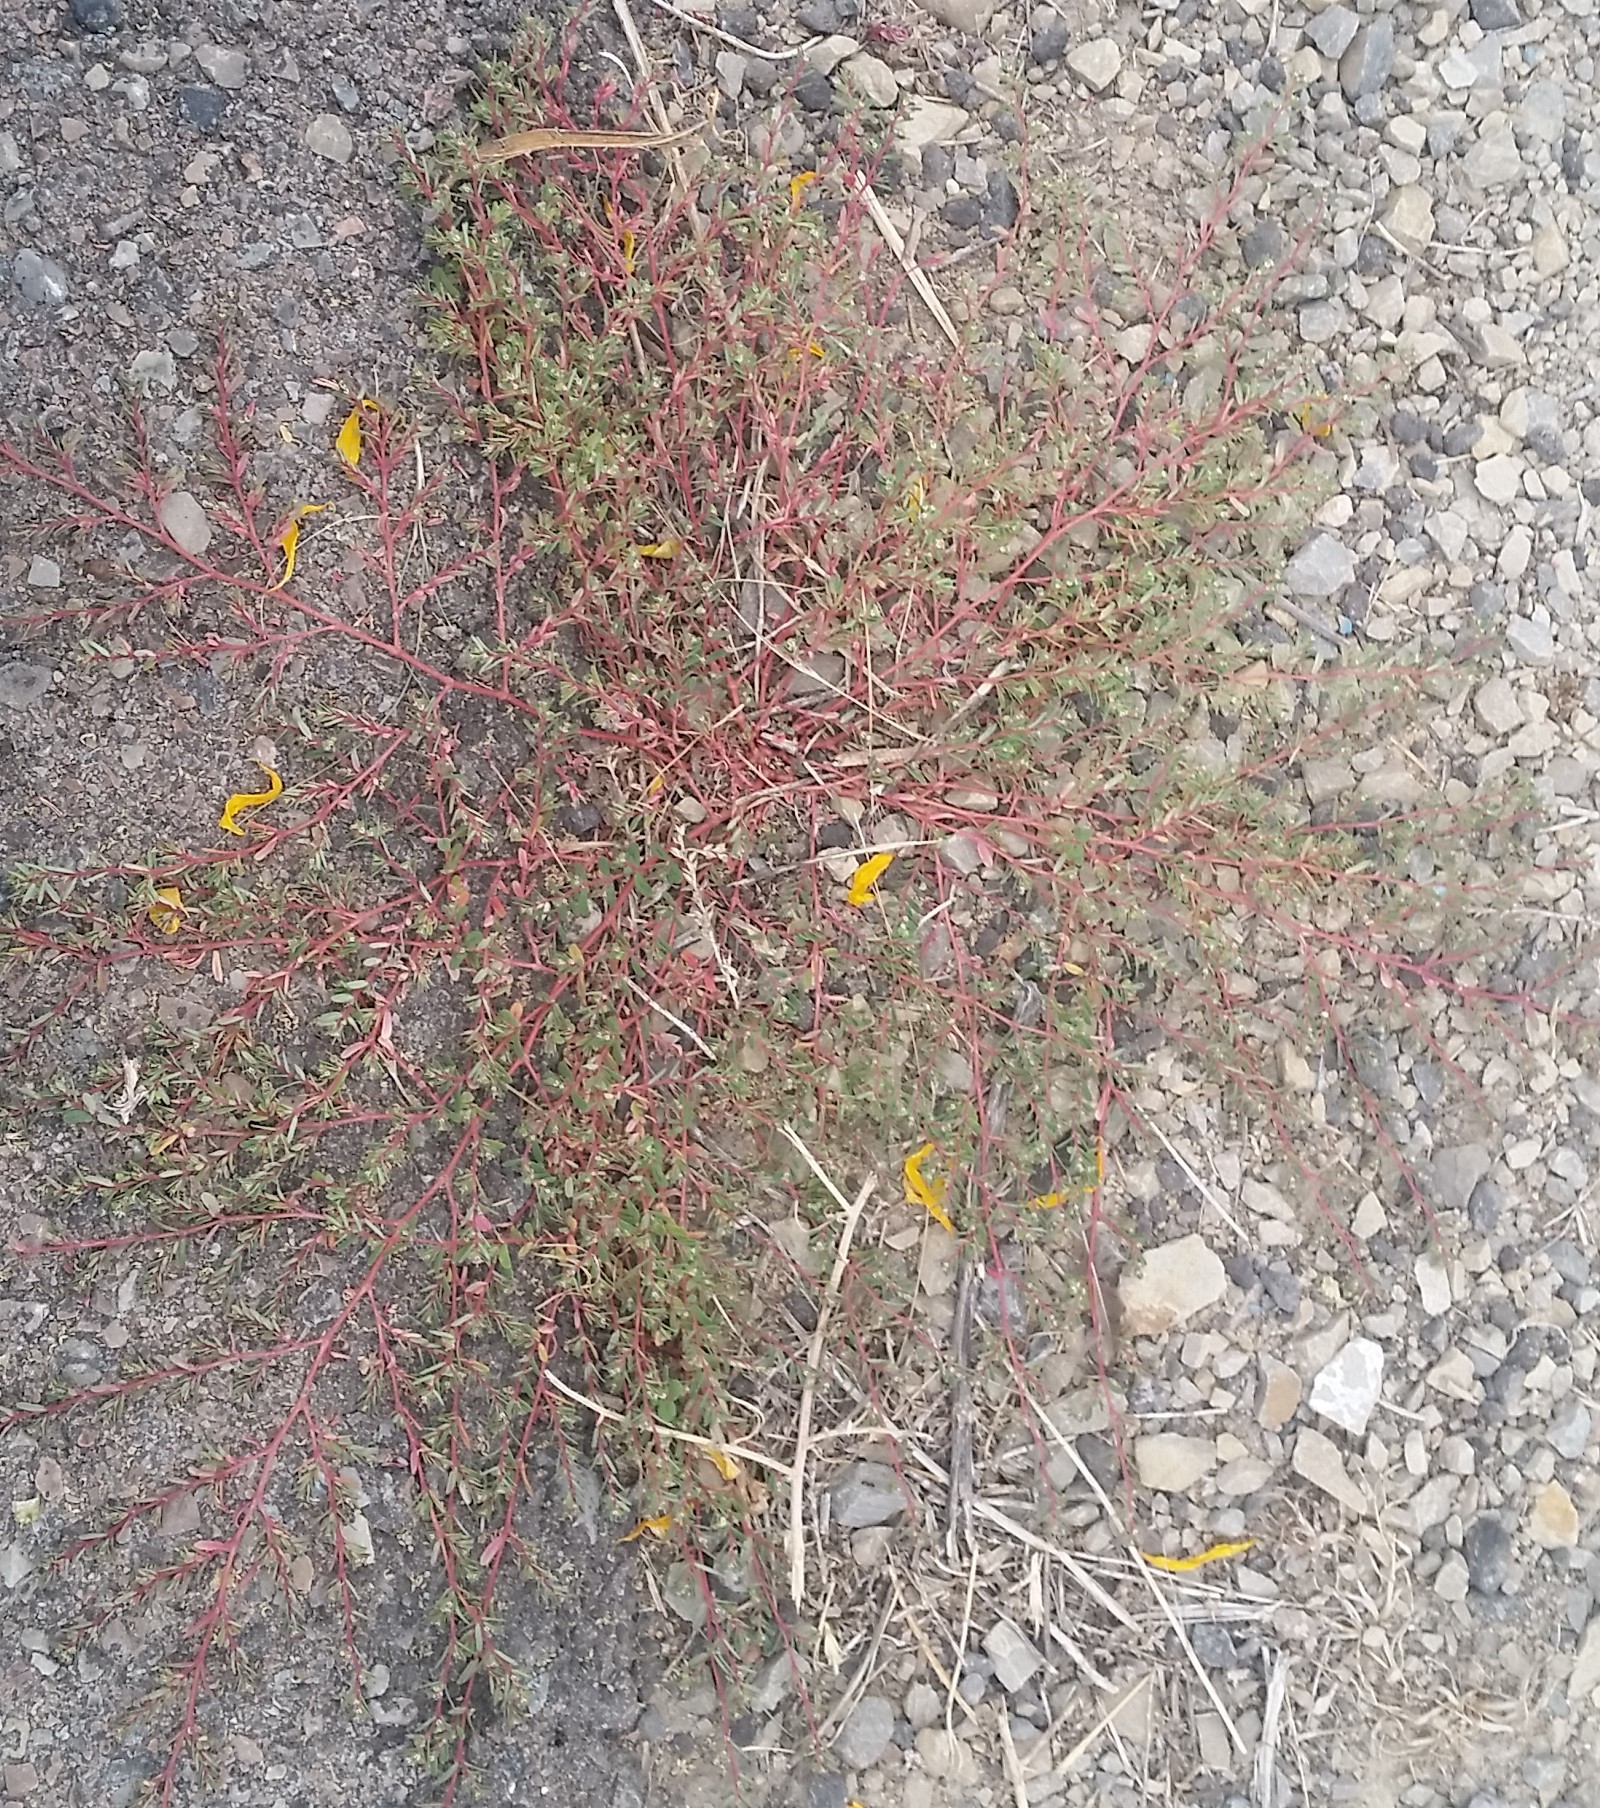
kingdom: Plantae
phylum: Tracheophyta
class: Magnoliopsida
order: Malpighiales
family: Euphorbiaceae
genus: Euphorbia
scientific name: Euphorbia serpillifolia
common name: Thyme-leaf spurge
